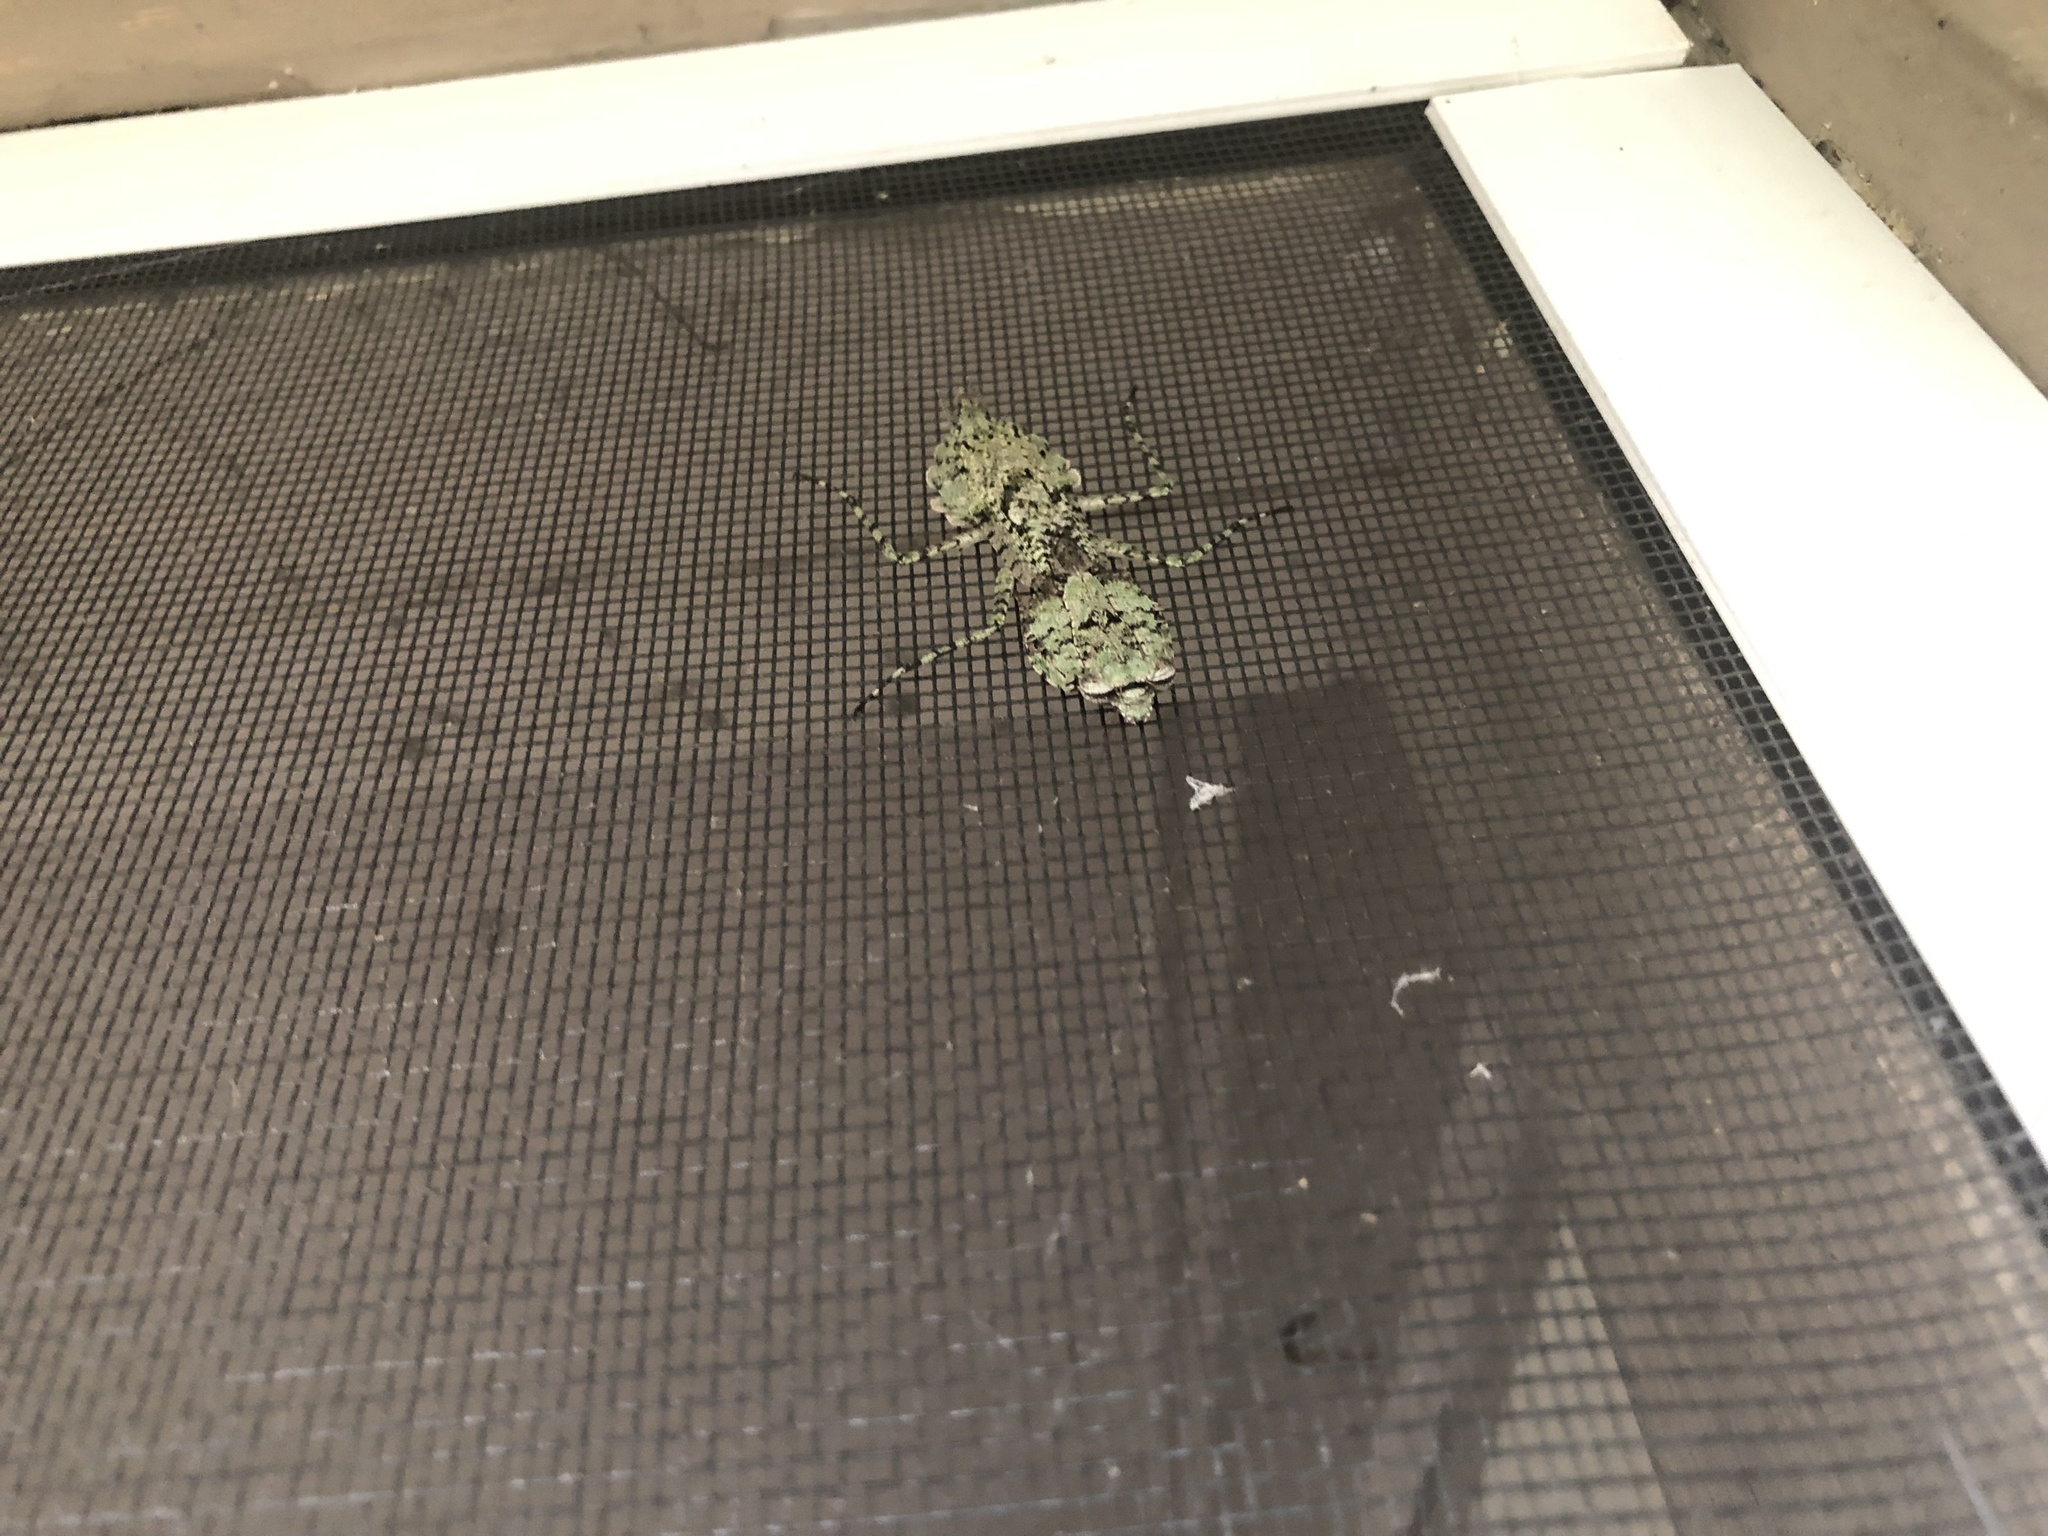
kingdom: Animalia
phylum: Arthropoda
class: Insecta
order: Mantodea
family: Epaphroditidae
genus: Gonatista
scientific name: Gonatista grisea
